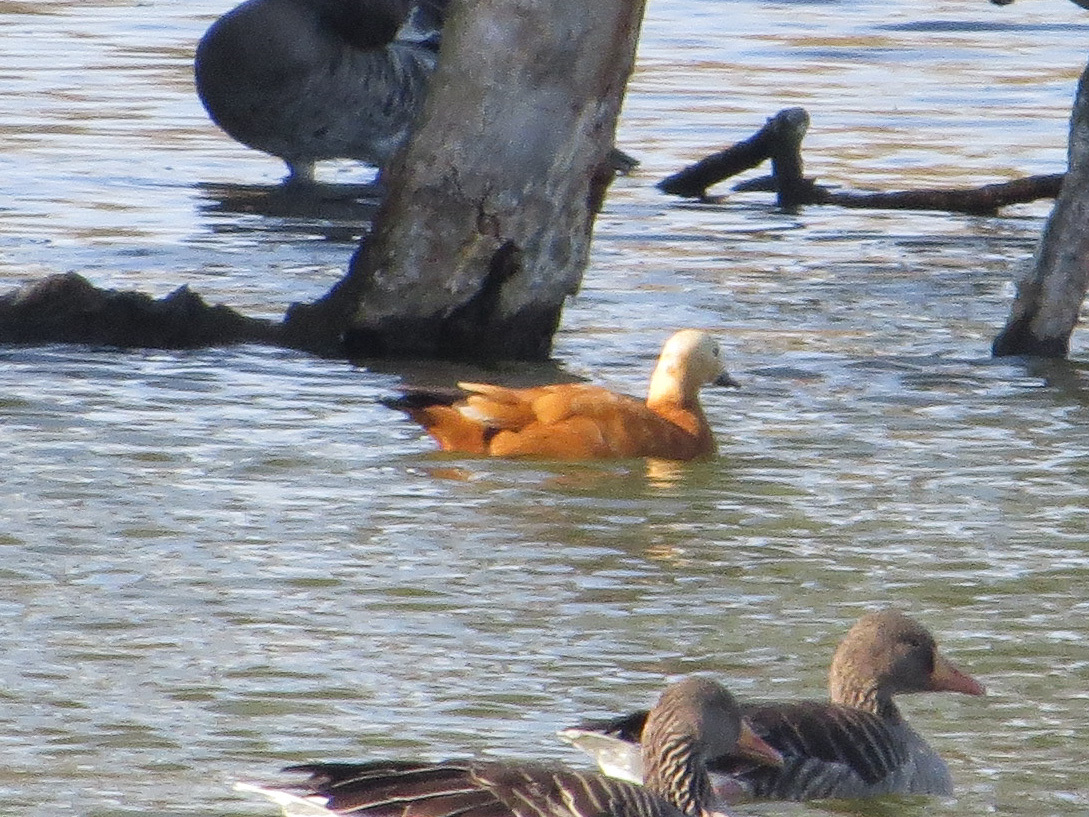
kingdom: Animalia
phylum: Chordata
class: Aves
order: Anseriformes
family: Anatidae
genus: Tadorna
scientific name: Tadorna ferruginea
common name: Ruddy shelduck
